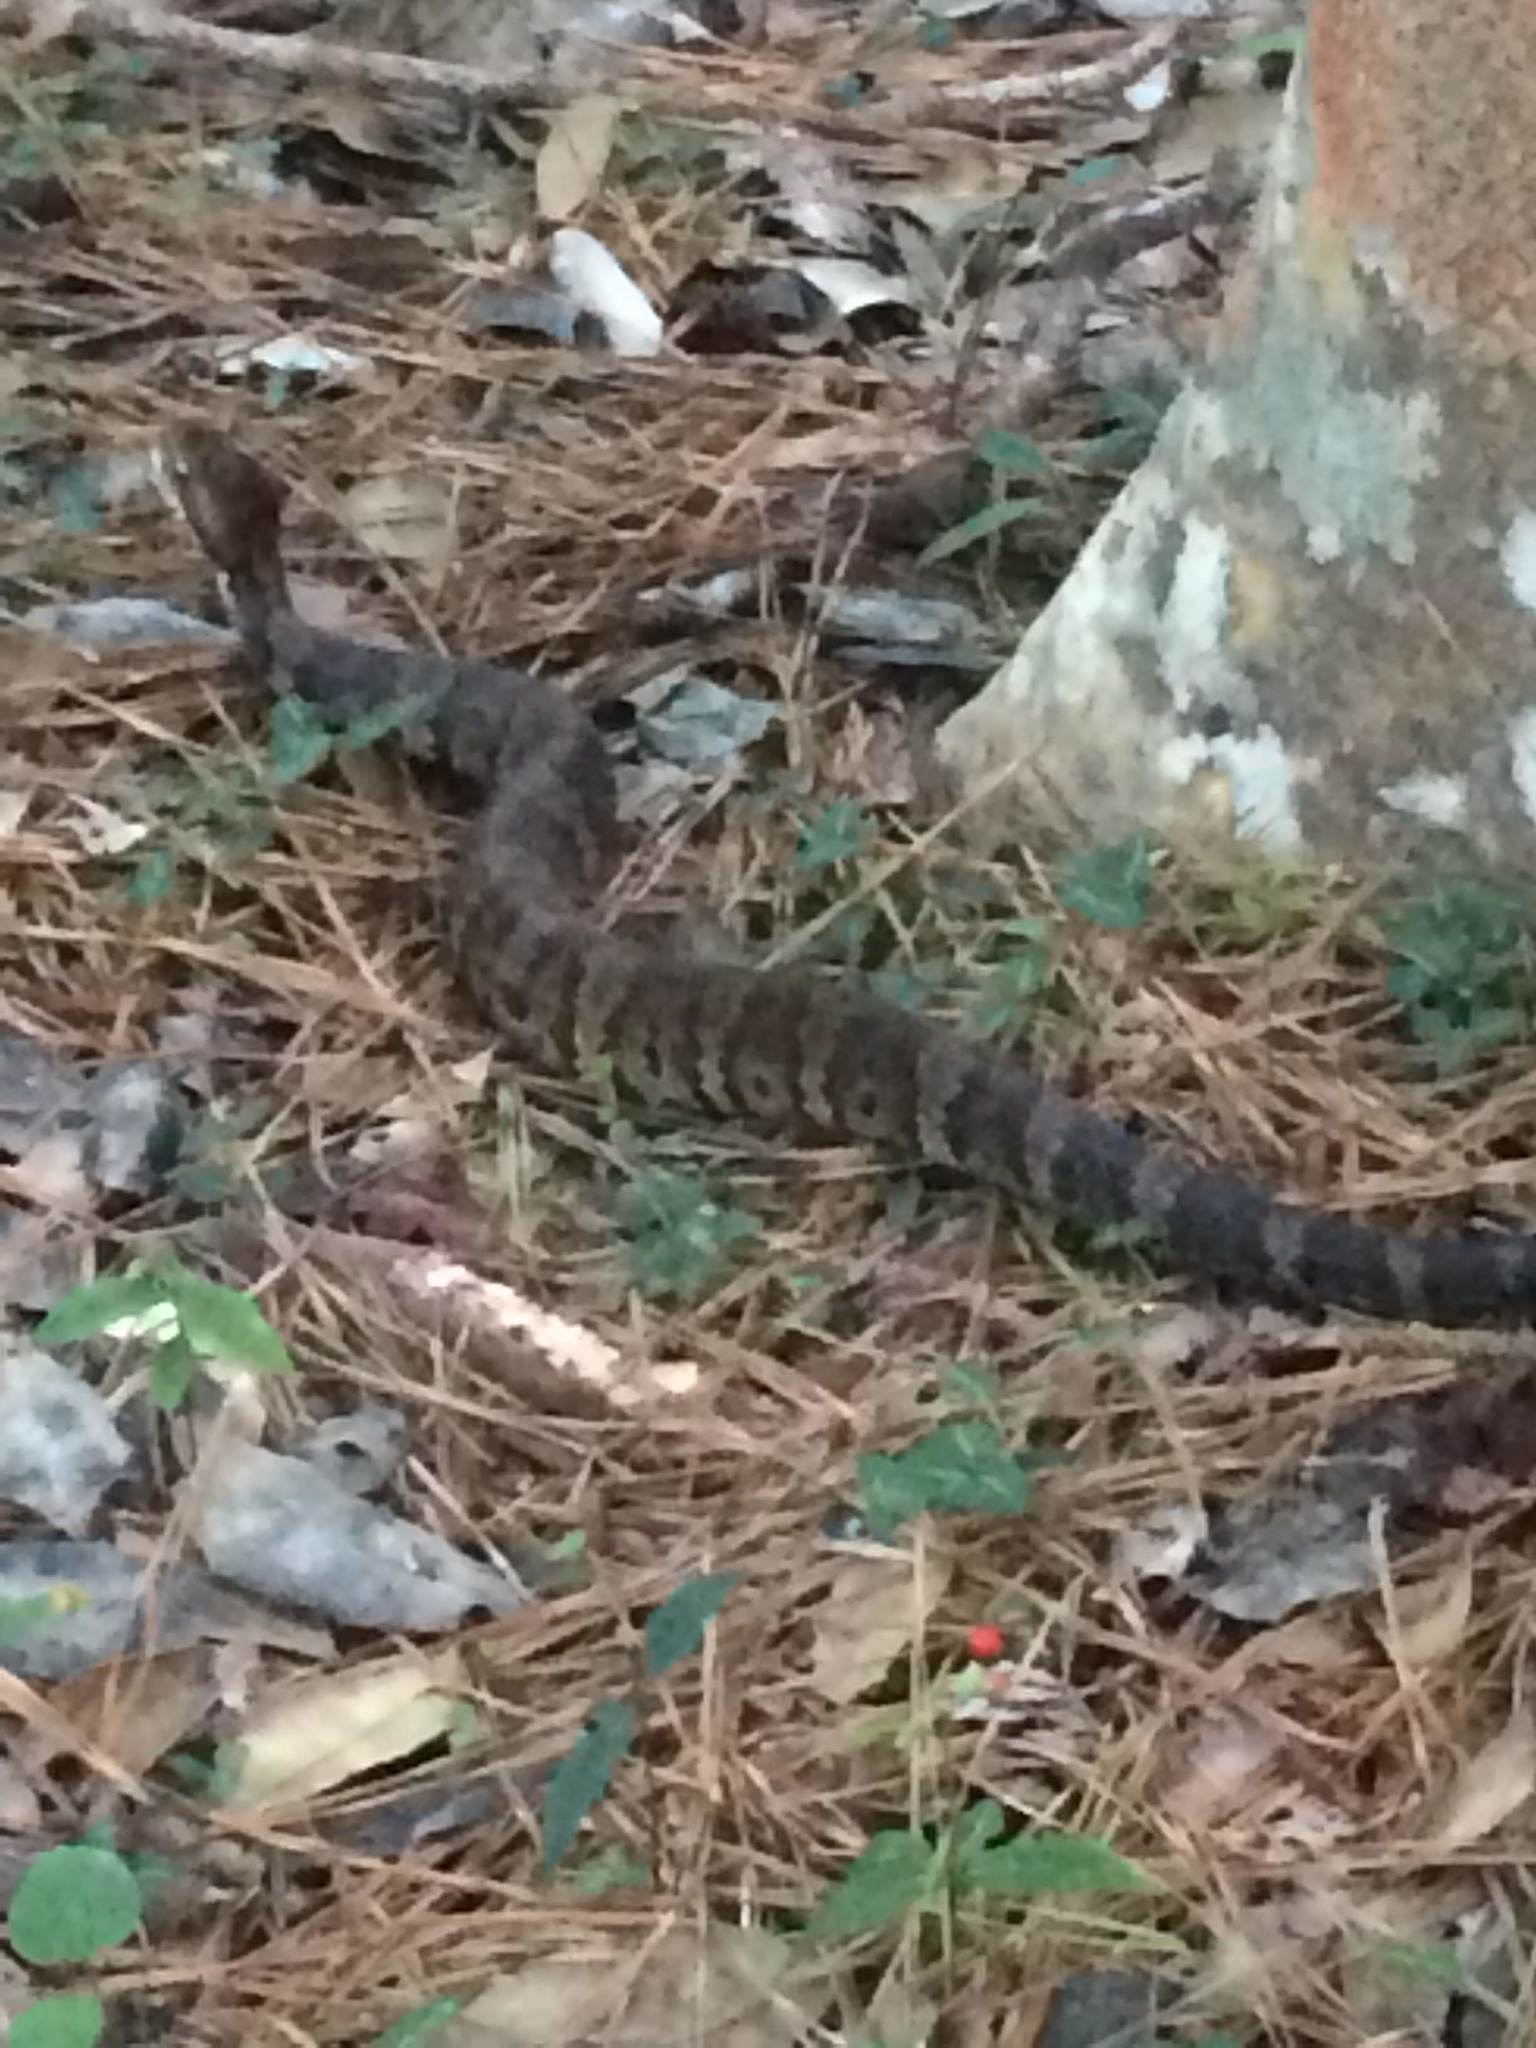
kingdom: Animalia
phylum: Chordata
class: Squamata
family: Viperidae
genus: Agkistrodon
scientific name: Agkistrodon piscivorus
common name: Cottonmouth
